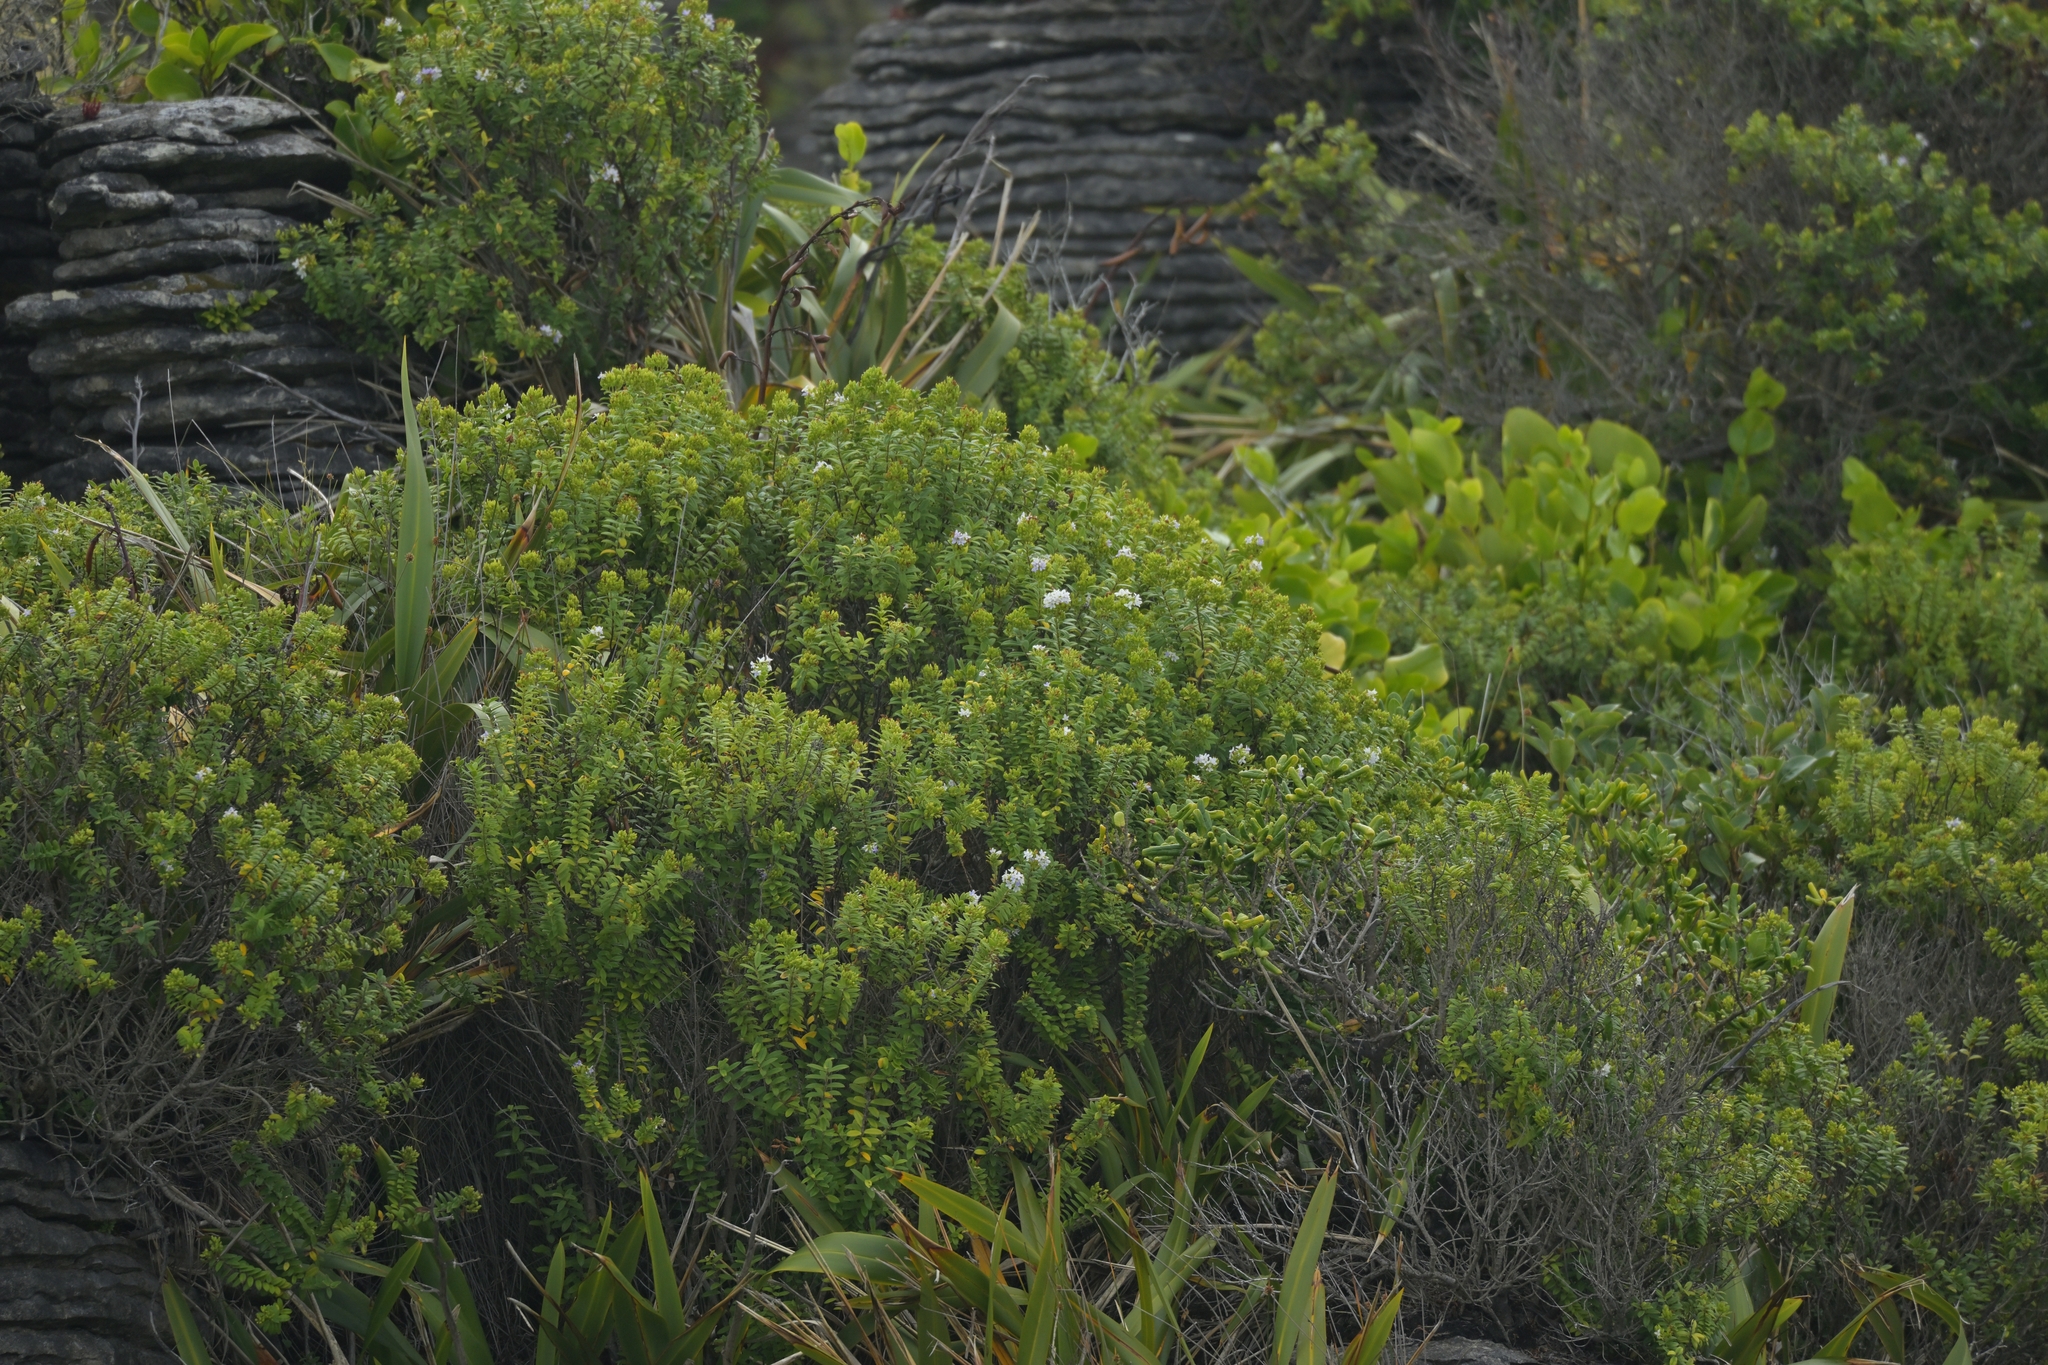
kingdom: Plantae
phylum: Tracheophyta
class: Magnoliopsida
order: Lamiales
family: Plantaginaceae
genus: Veronica
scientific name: Veronica elliptica
